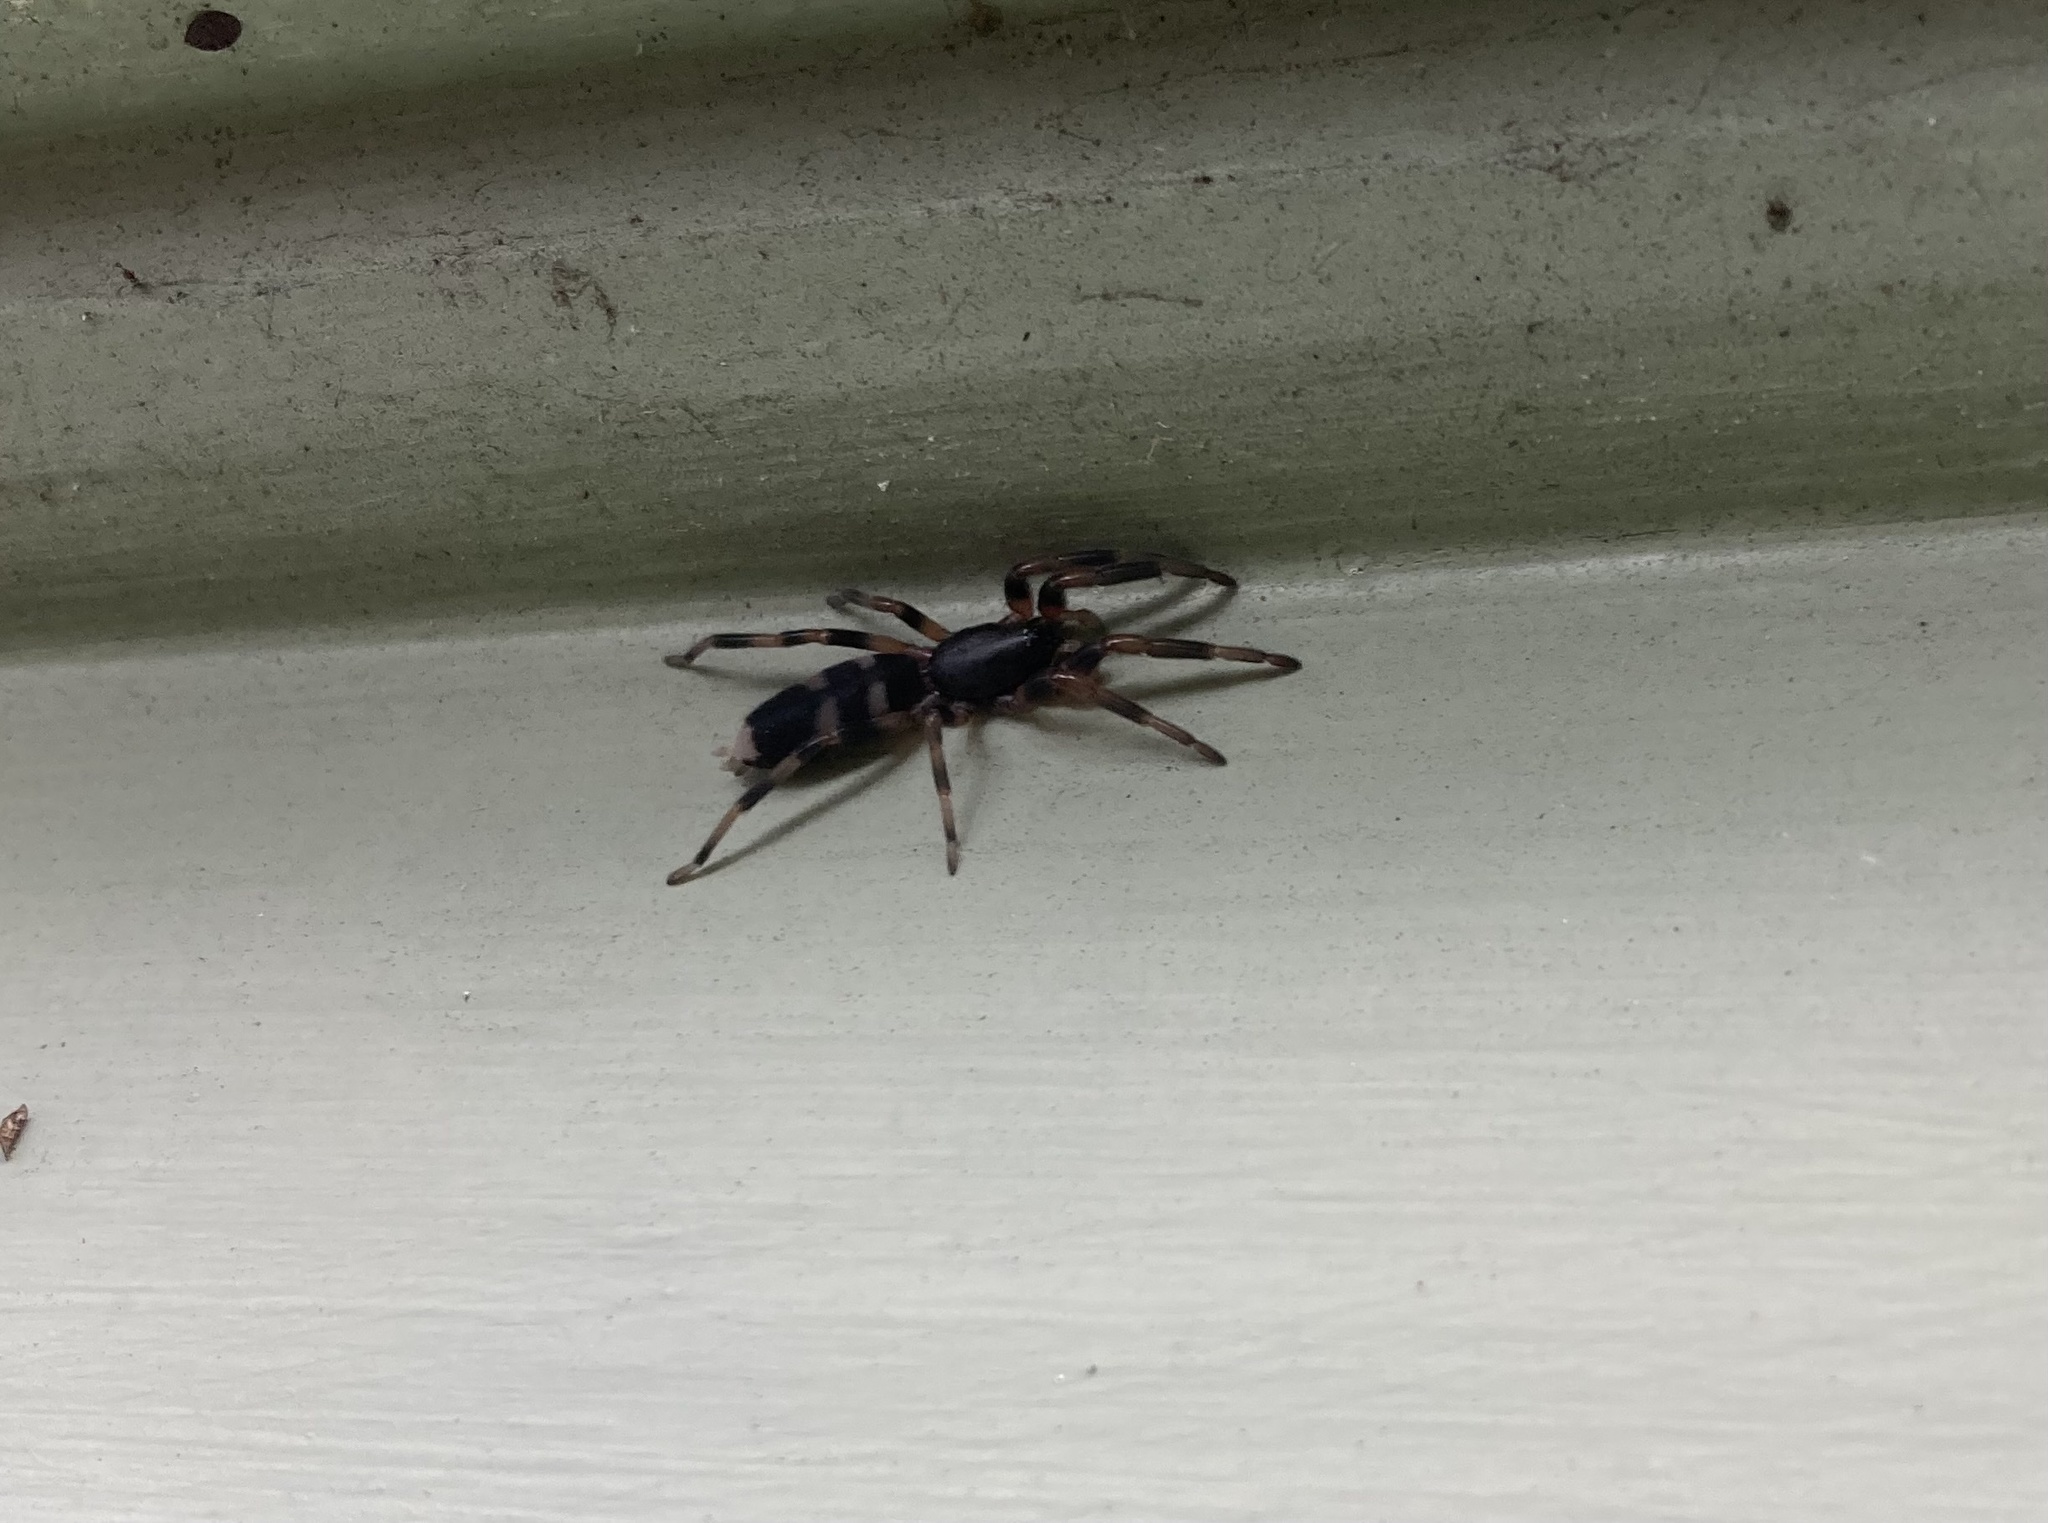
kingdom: Animalia
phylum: Arthropoda
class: Arachnida
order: Araneae
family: Lamponidae
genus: Lampona
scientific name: Lampona murina
